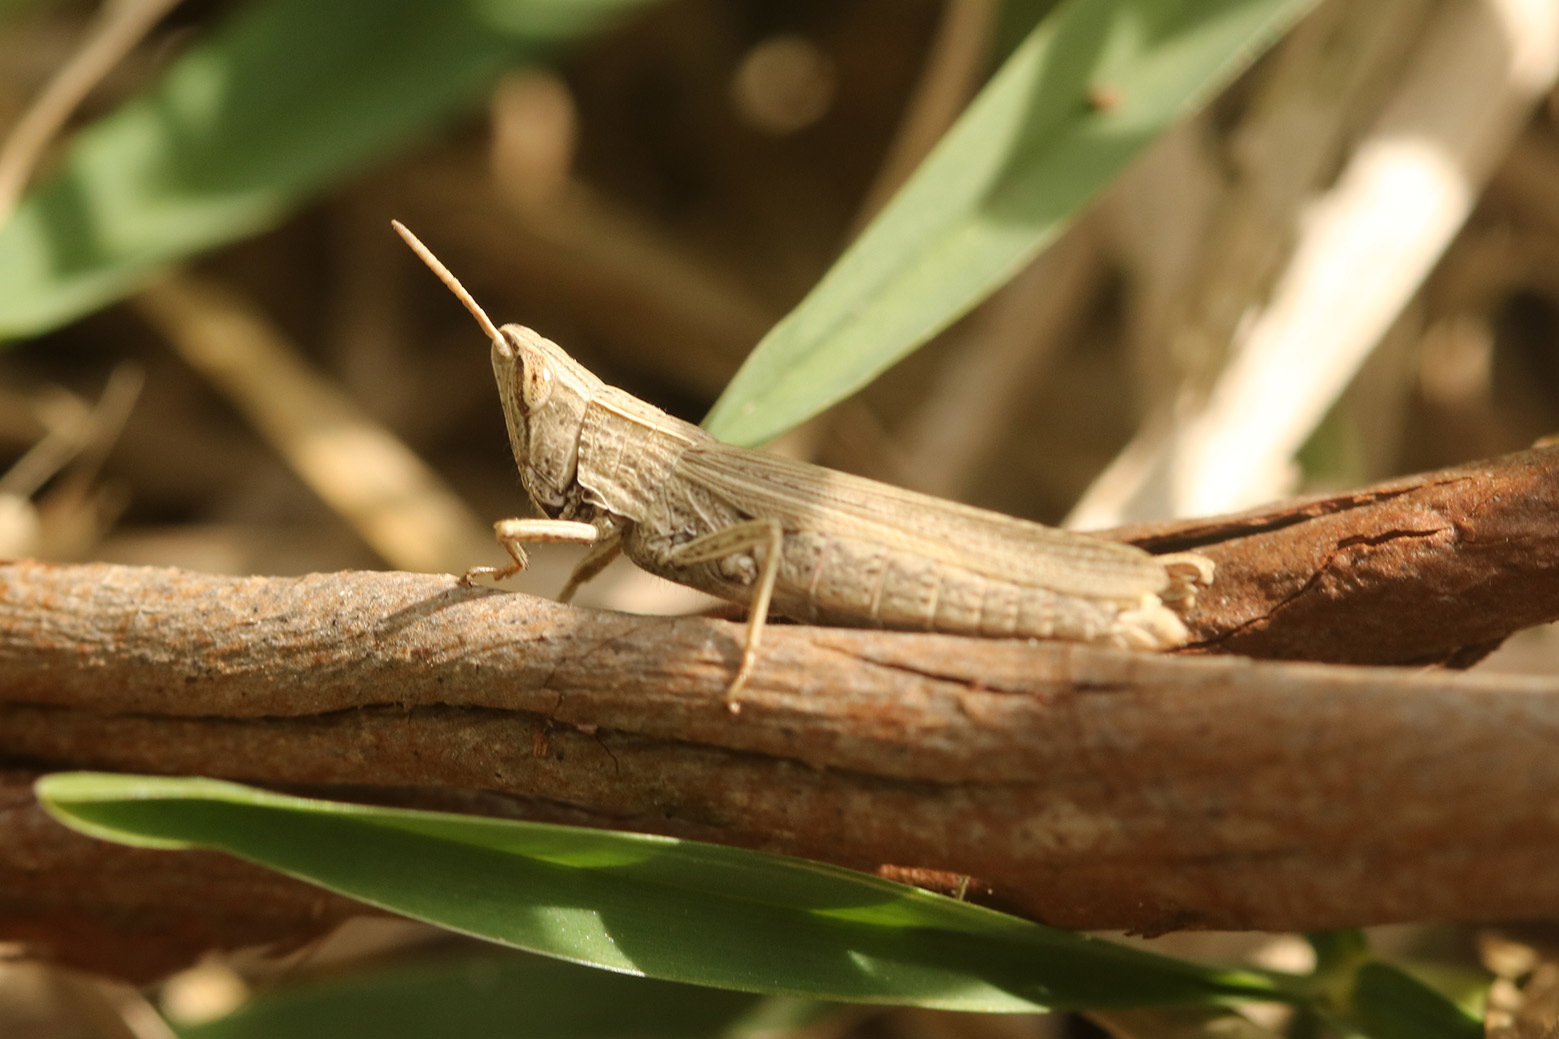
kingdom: Animalia
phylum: Arthropoda
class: Insecta
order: Orthoptera
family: Acrididae
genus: Laplatacris
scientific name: Laplatacris dispar
